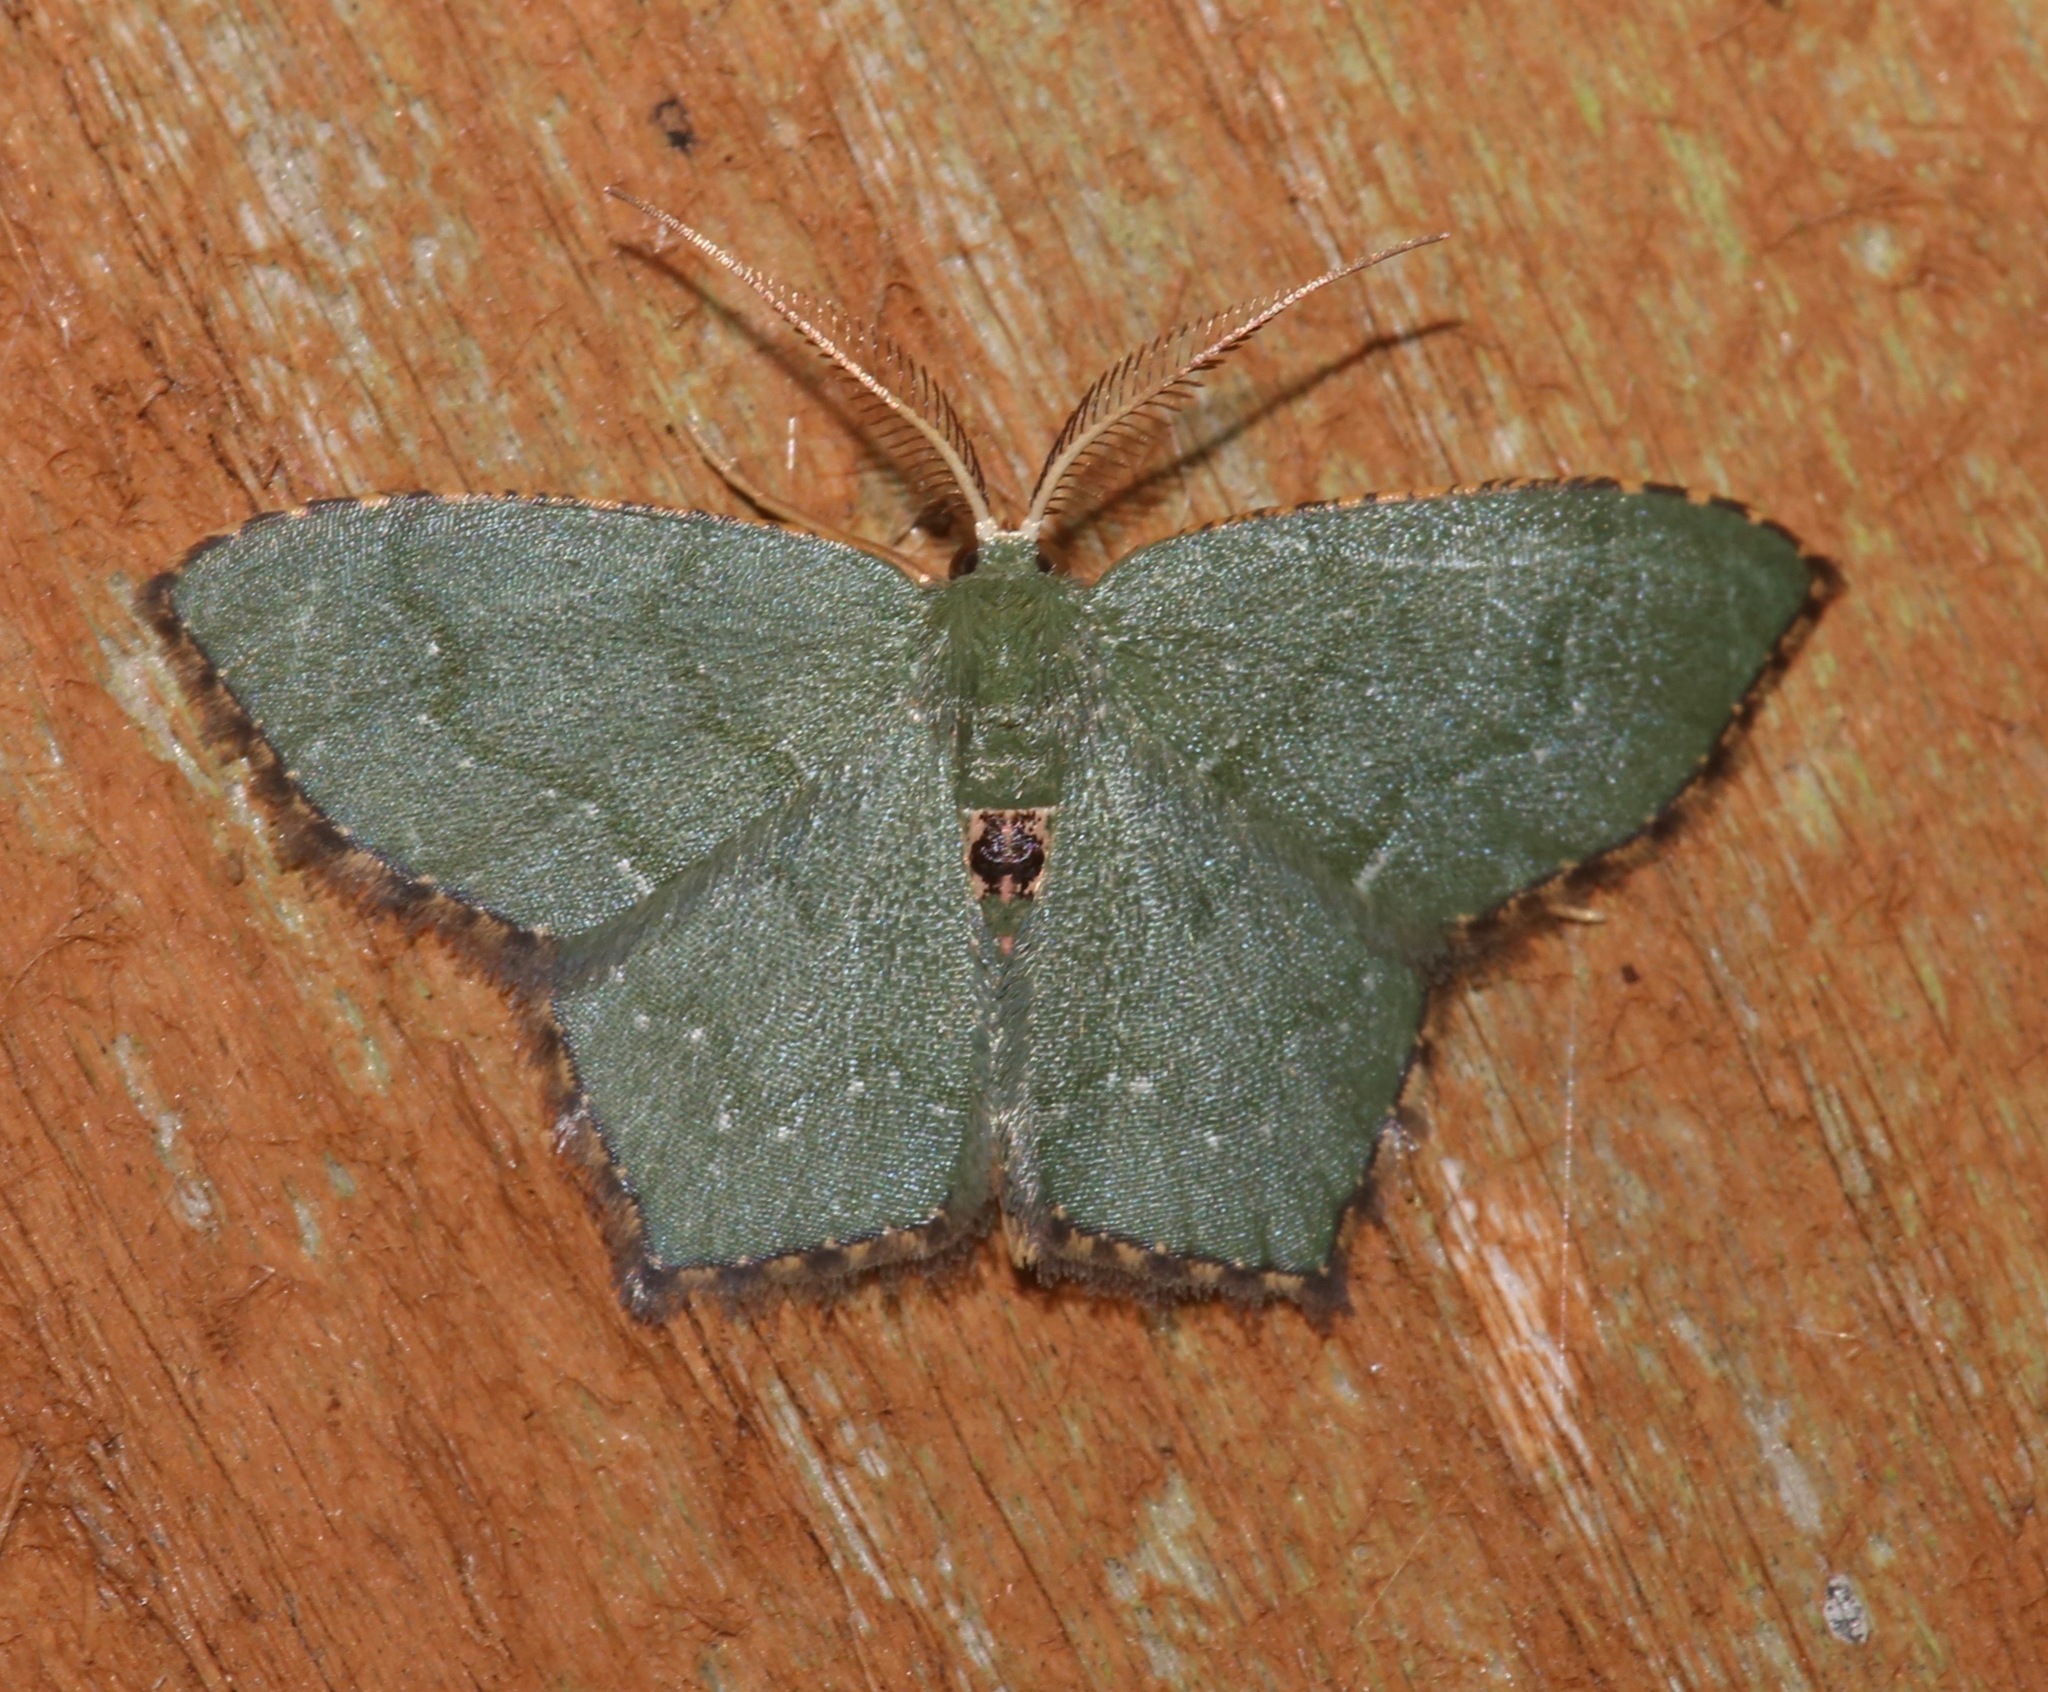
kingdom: Animalia
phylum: Arthropoda
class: Insecta
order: Lepidoptera
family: Geometridae
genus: Chloropteryx
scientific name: Chloropteryx tepperaria
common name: Angle winged emerald moth
